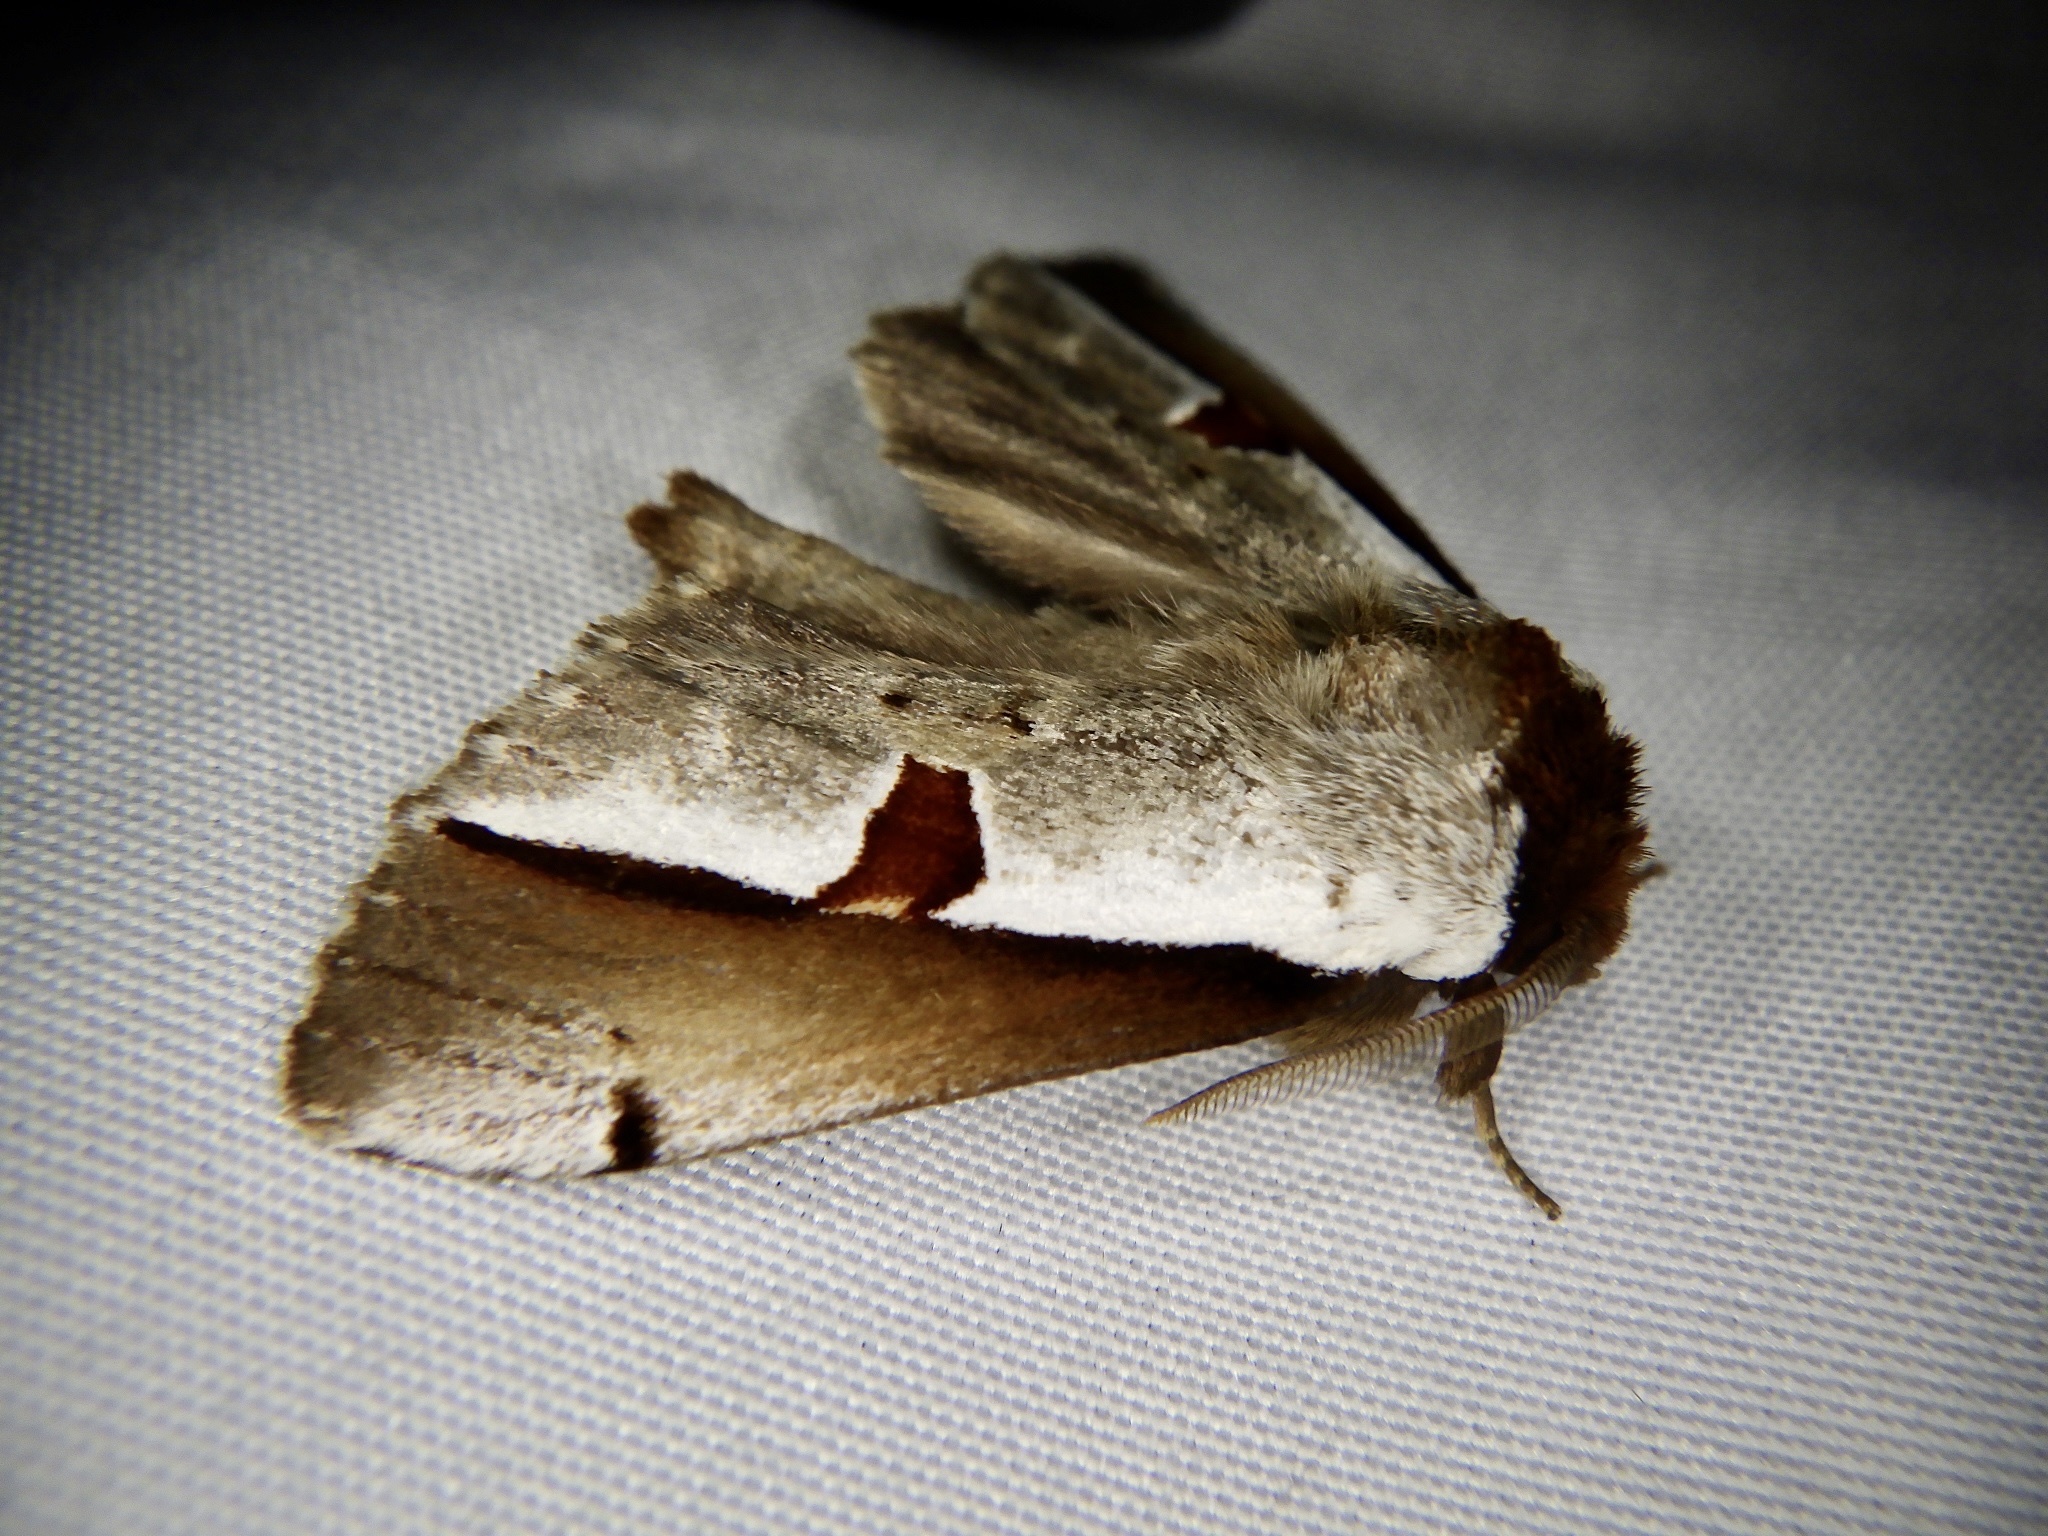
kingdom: Animalia
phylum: Arthropoda
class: Insecta
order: Lepidoptera
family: Notodontidae
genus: Nerice
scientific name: Nerice bipartita
